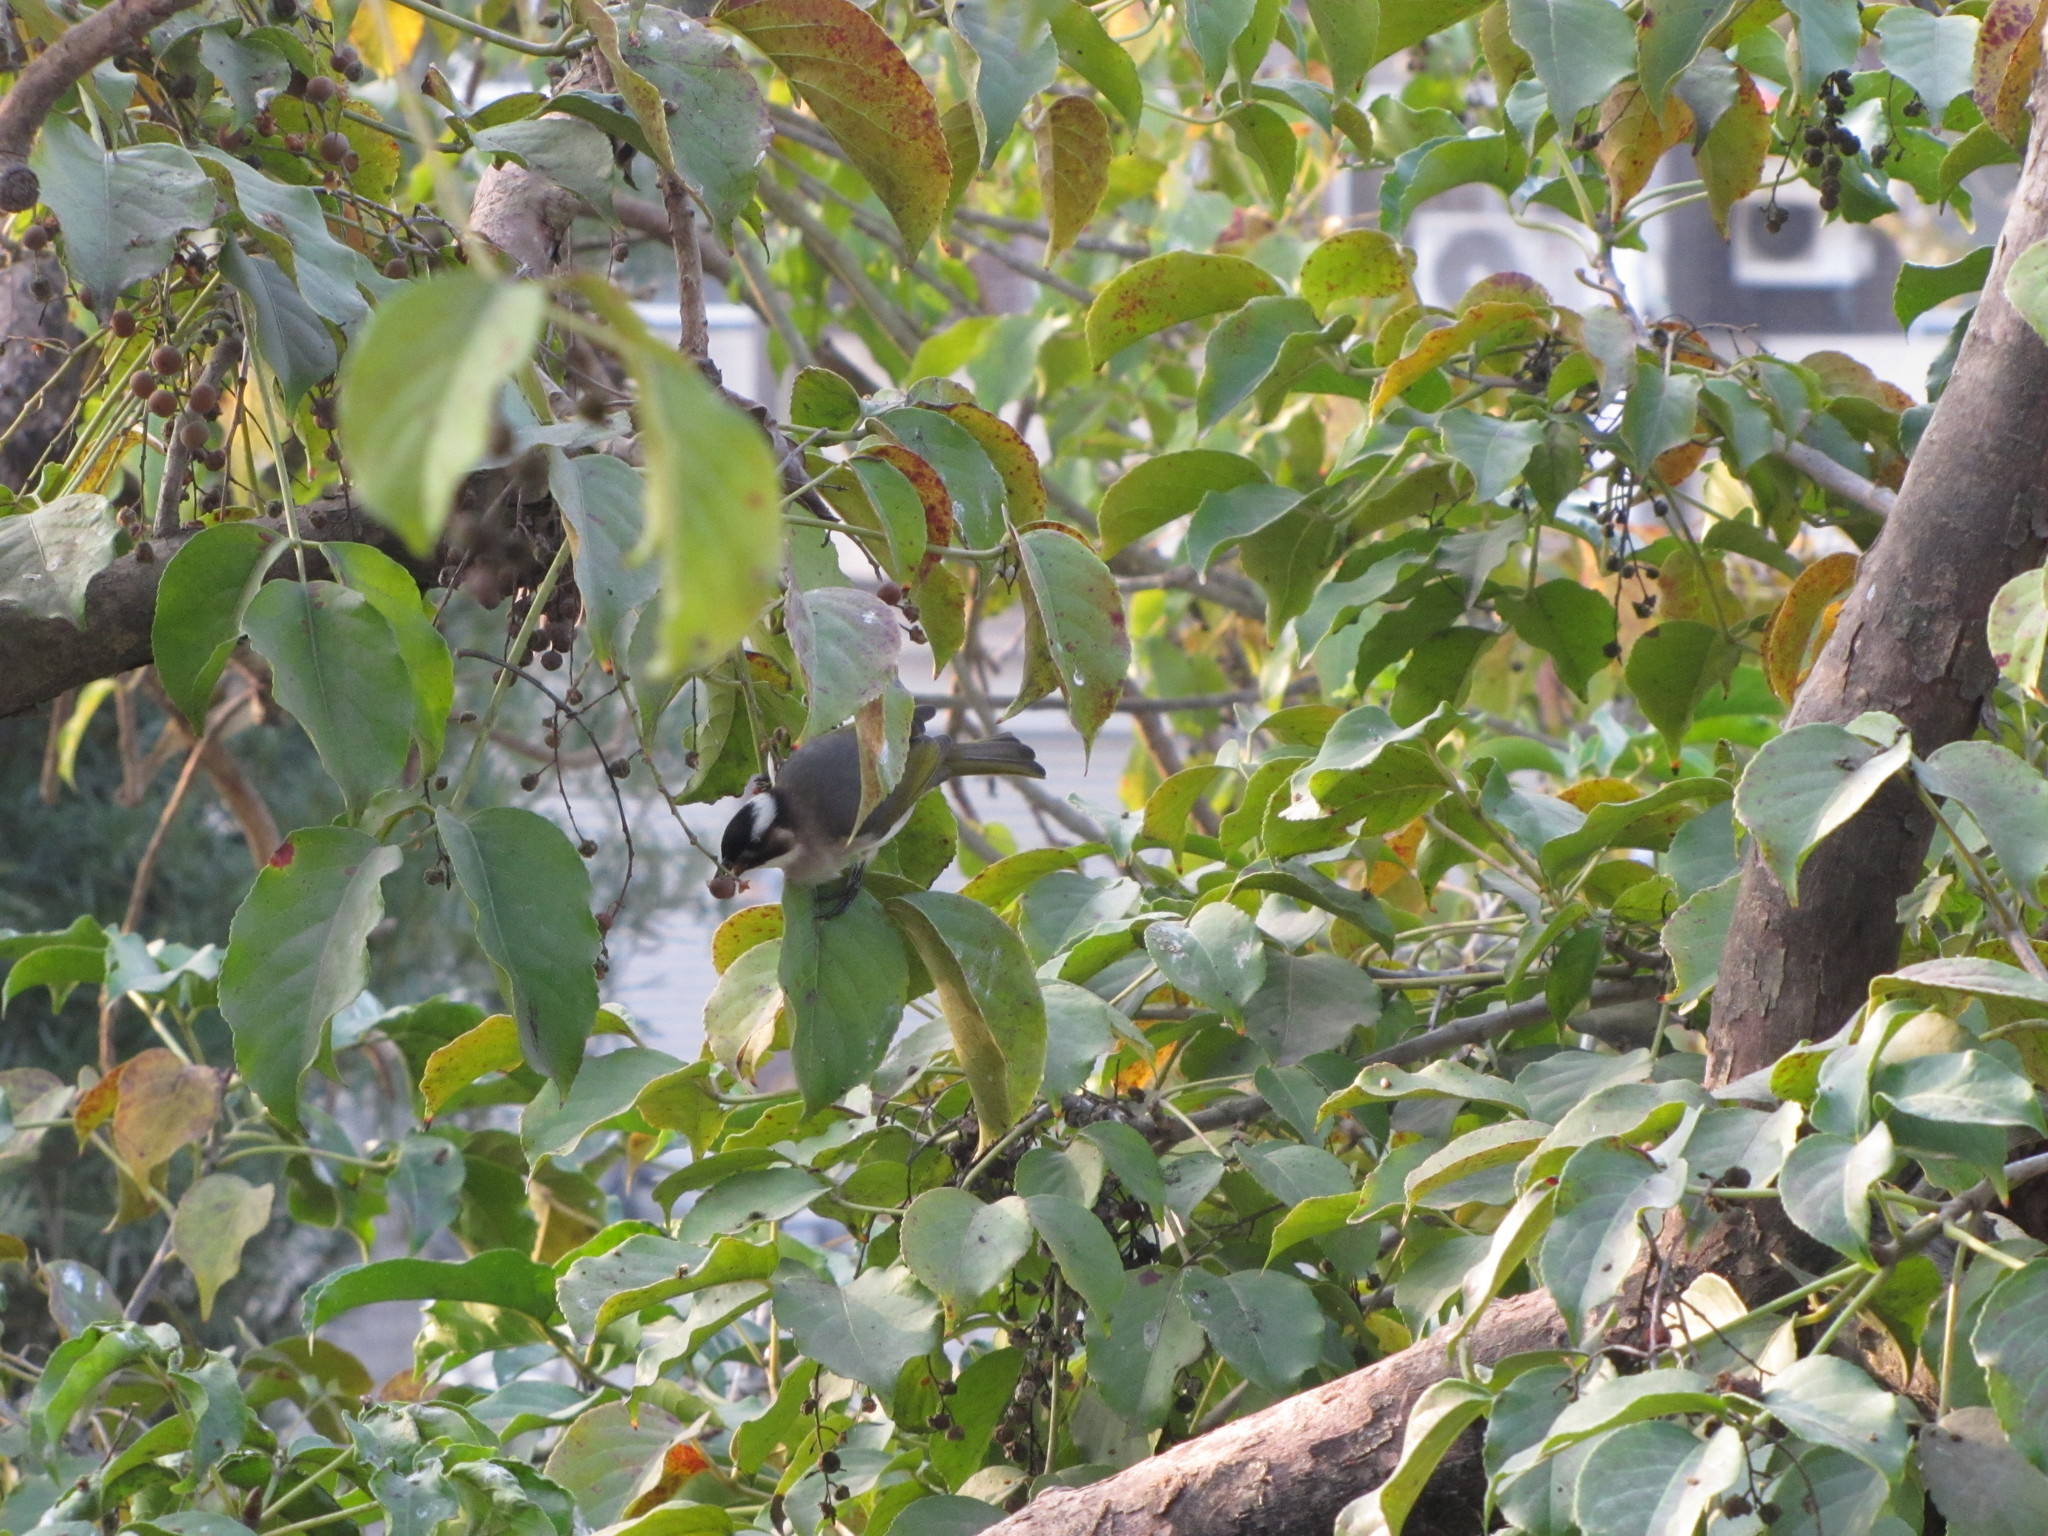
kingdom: Animalia
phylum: Chordata
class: Aves
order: Passeriformes
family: Pycnonotidae
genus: Pycnonotus
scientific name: Pycnonotus sinensis
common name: Light-vented bulbul
